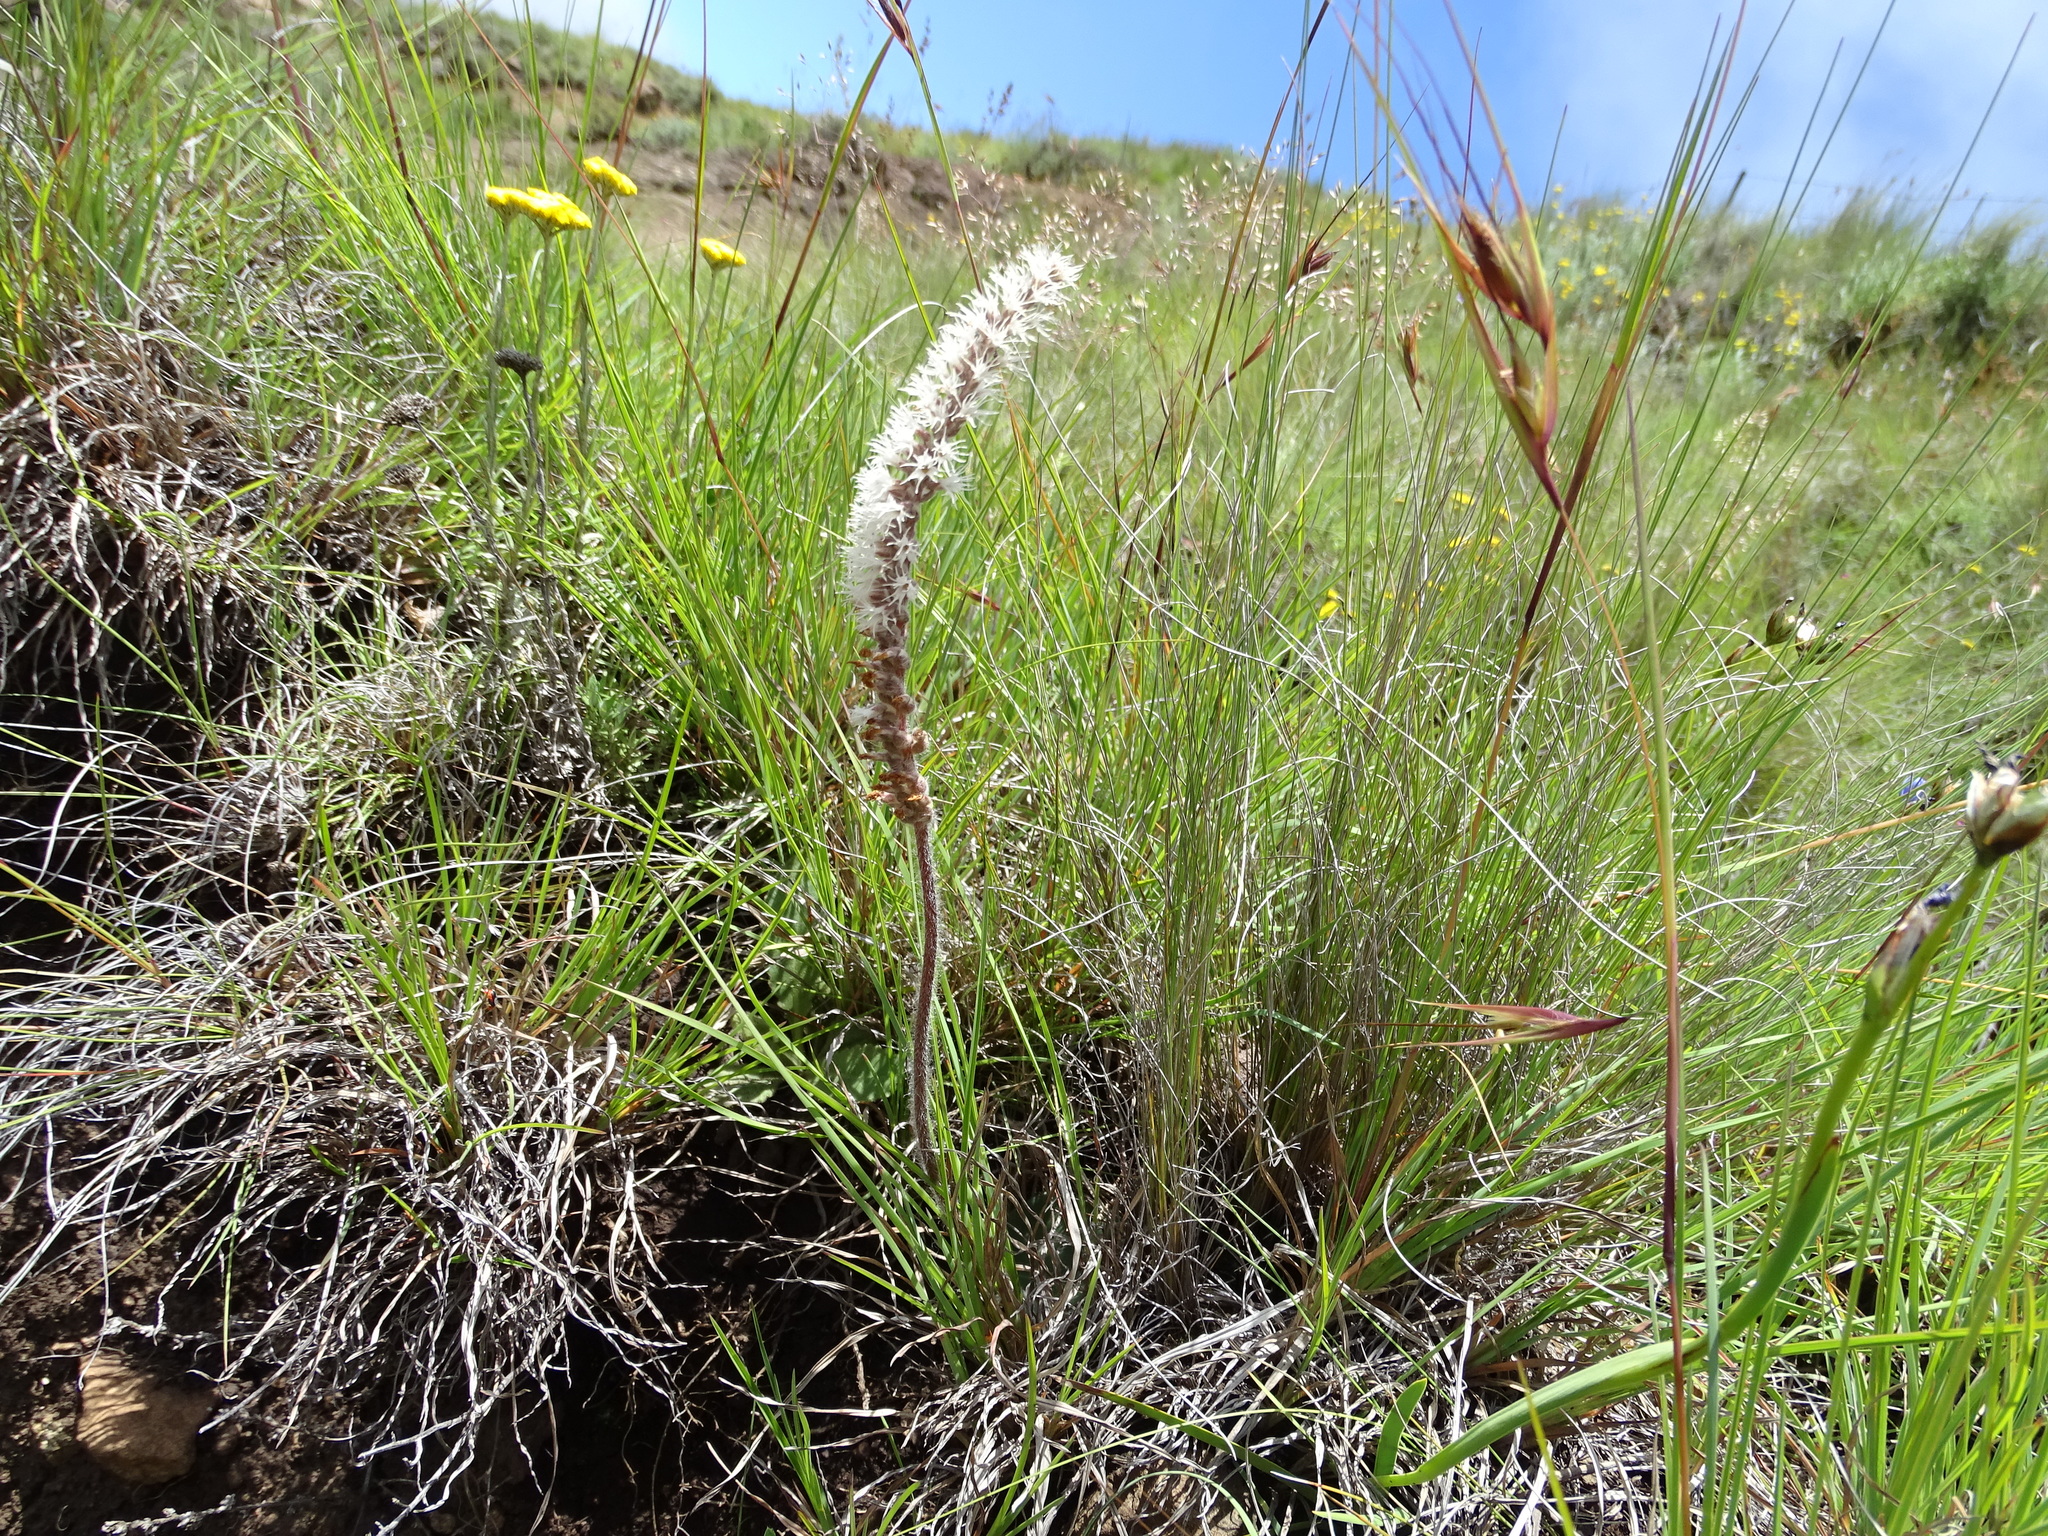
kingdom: Plantae
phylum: Tracheophyta
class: Liliopsida
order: Asparagales
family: Orchidaceae
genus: Holothrix
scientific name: Holothrix scopularia
